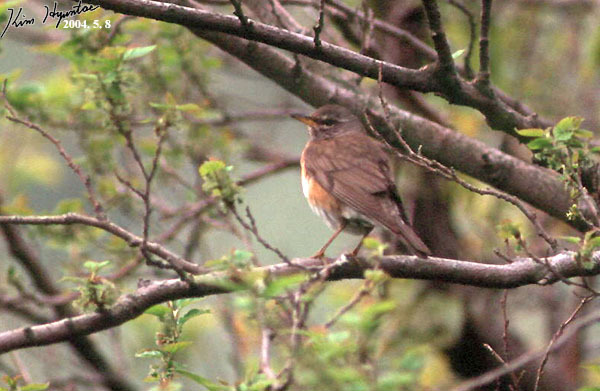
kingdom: Animalia
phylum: Chordata
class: Aves
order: Passeriformes
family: Turdidae
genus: Turdus
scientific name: Turdus obscurus
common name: Eyebrowed thrush
